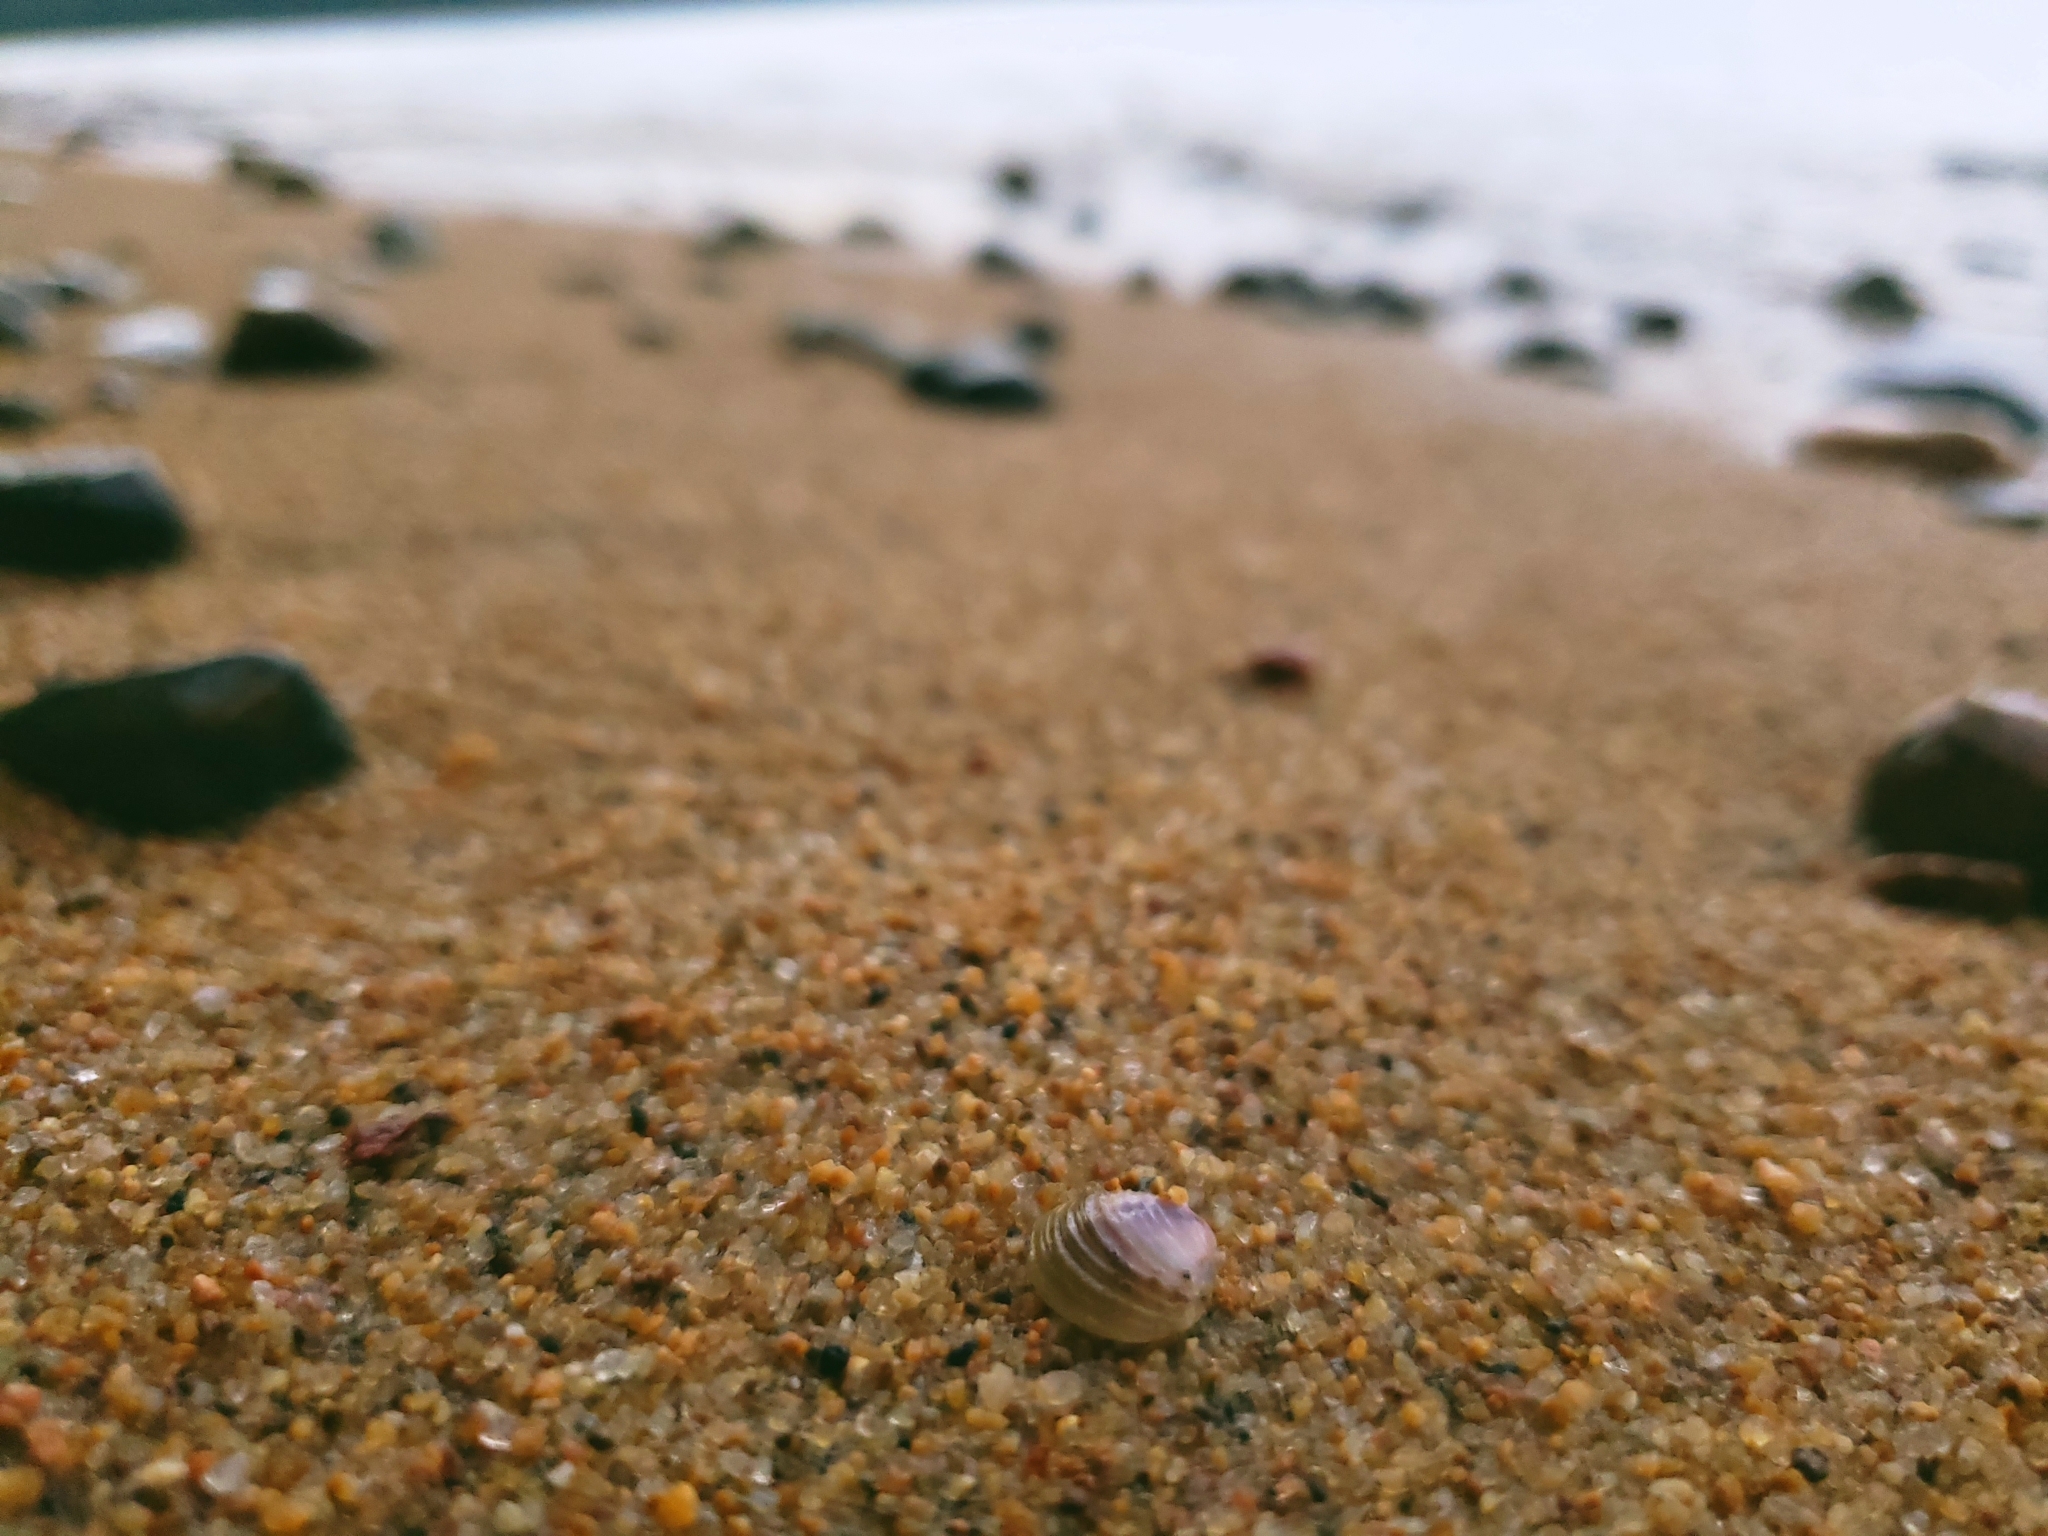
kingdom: Animalia
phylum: Mollusca
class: Bivalvia
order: Venerida
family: Cyrenidae
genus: Corbicula
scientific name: Corbicula fluminea
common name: Asian clam
